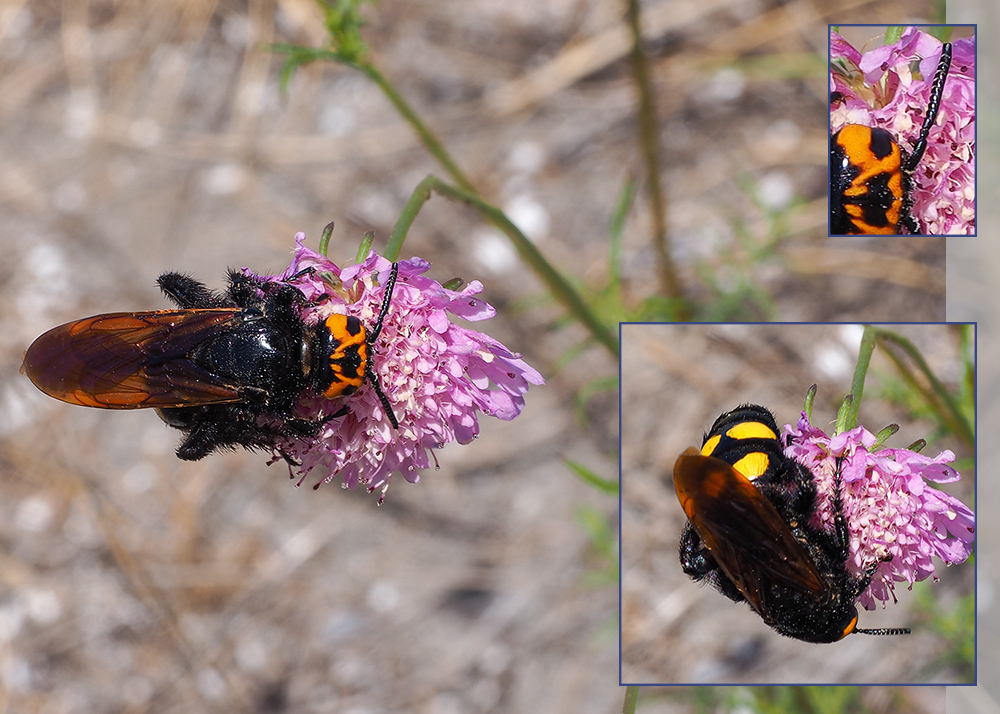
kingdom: Animalia
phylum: Arthropoda
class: Insecta
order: Hymenoptera
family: Scoliidae
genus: Megascolia
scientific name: Megascolia maculata
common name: Mammoth wasp
